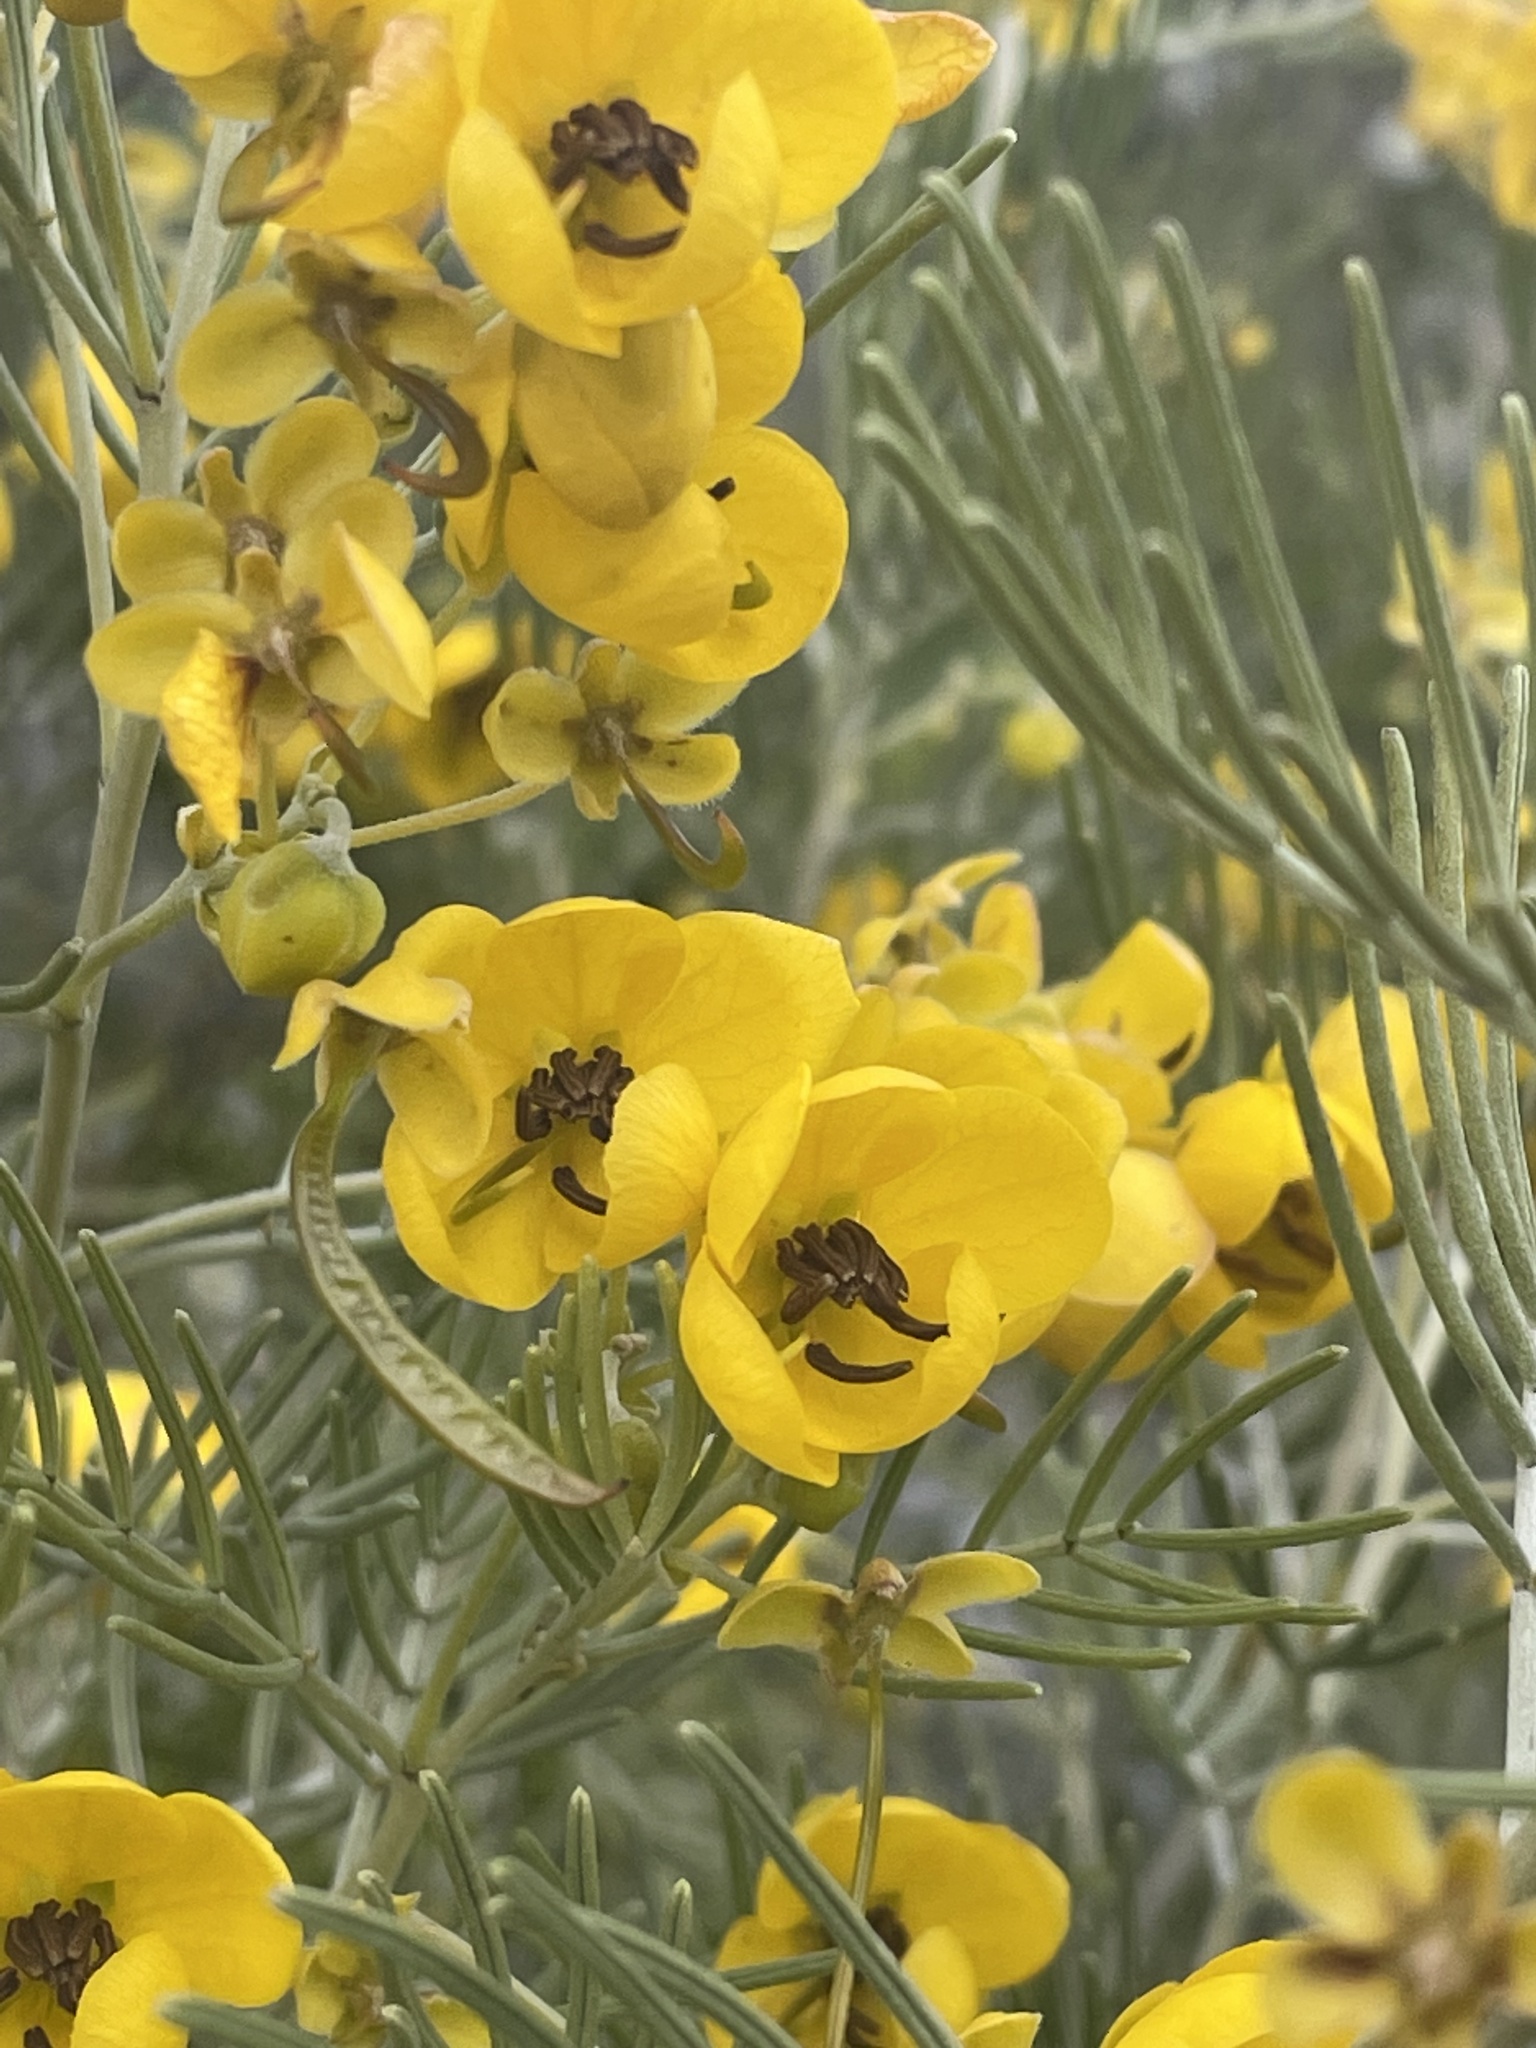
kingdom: Plantae
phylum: Tracheophyta
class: Magnoliopsida
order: Fabales
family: Fabaceae
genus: Senna
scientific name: Senna artemisioides
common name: Burnt-leaved acacia
